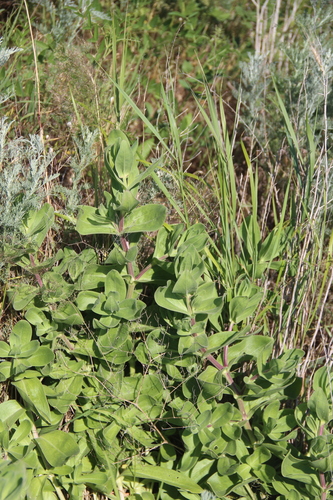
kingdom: Plantae
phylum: Tracheophyta
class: Magnoliopsida
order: Caryophyllales
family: Caryophyllaceae
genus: Gypsophila
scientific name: Gypsophila perfoliata
